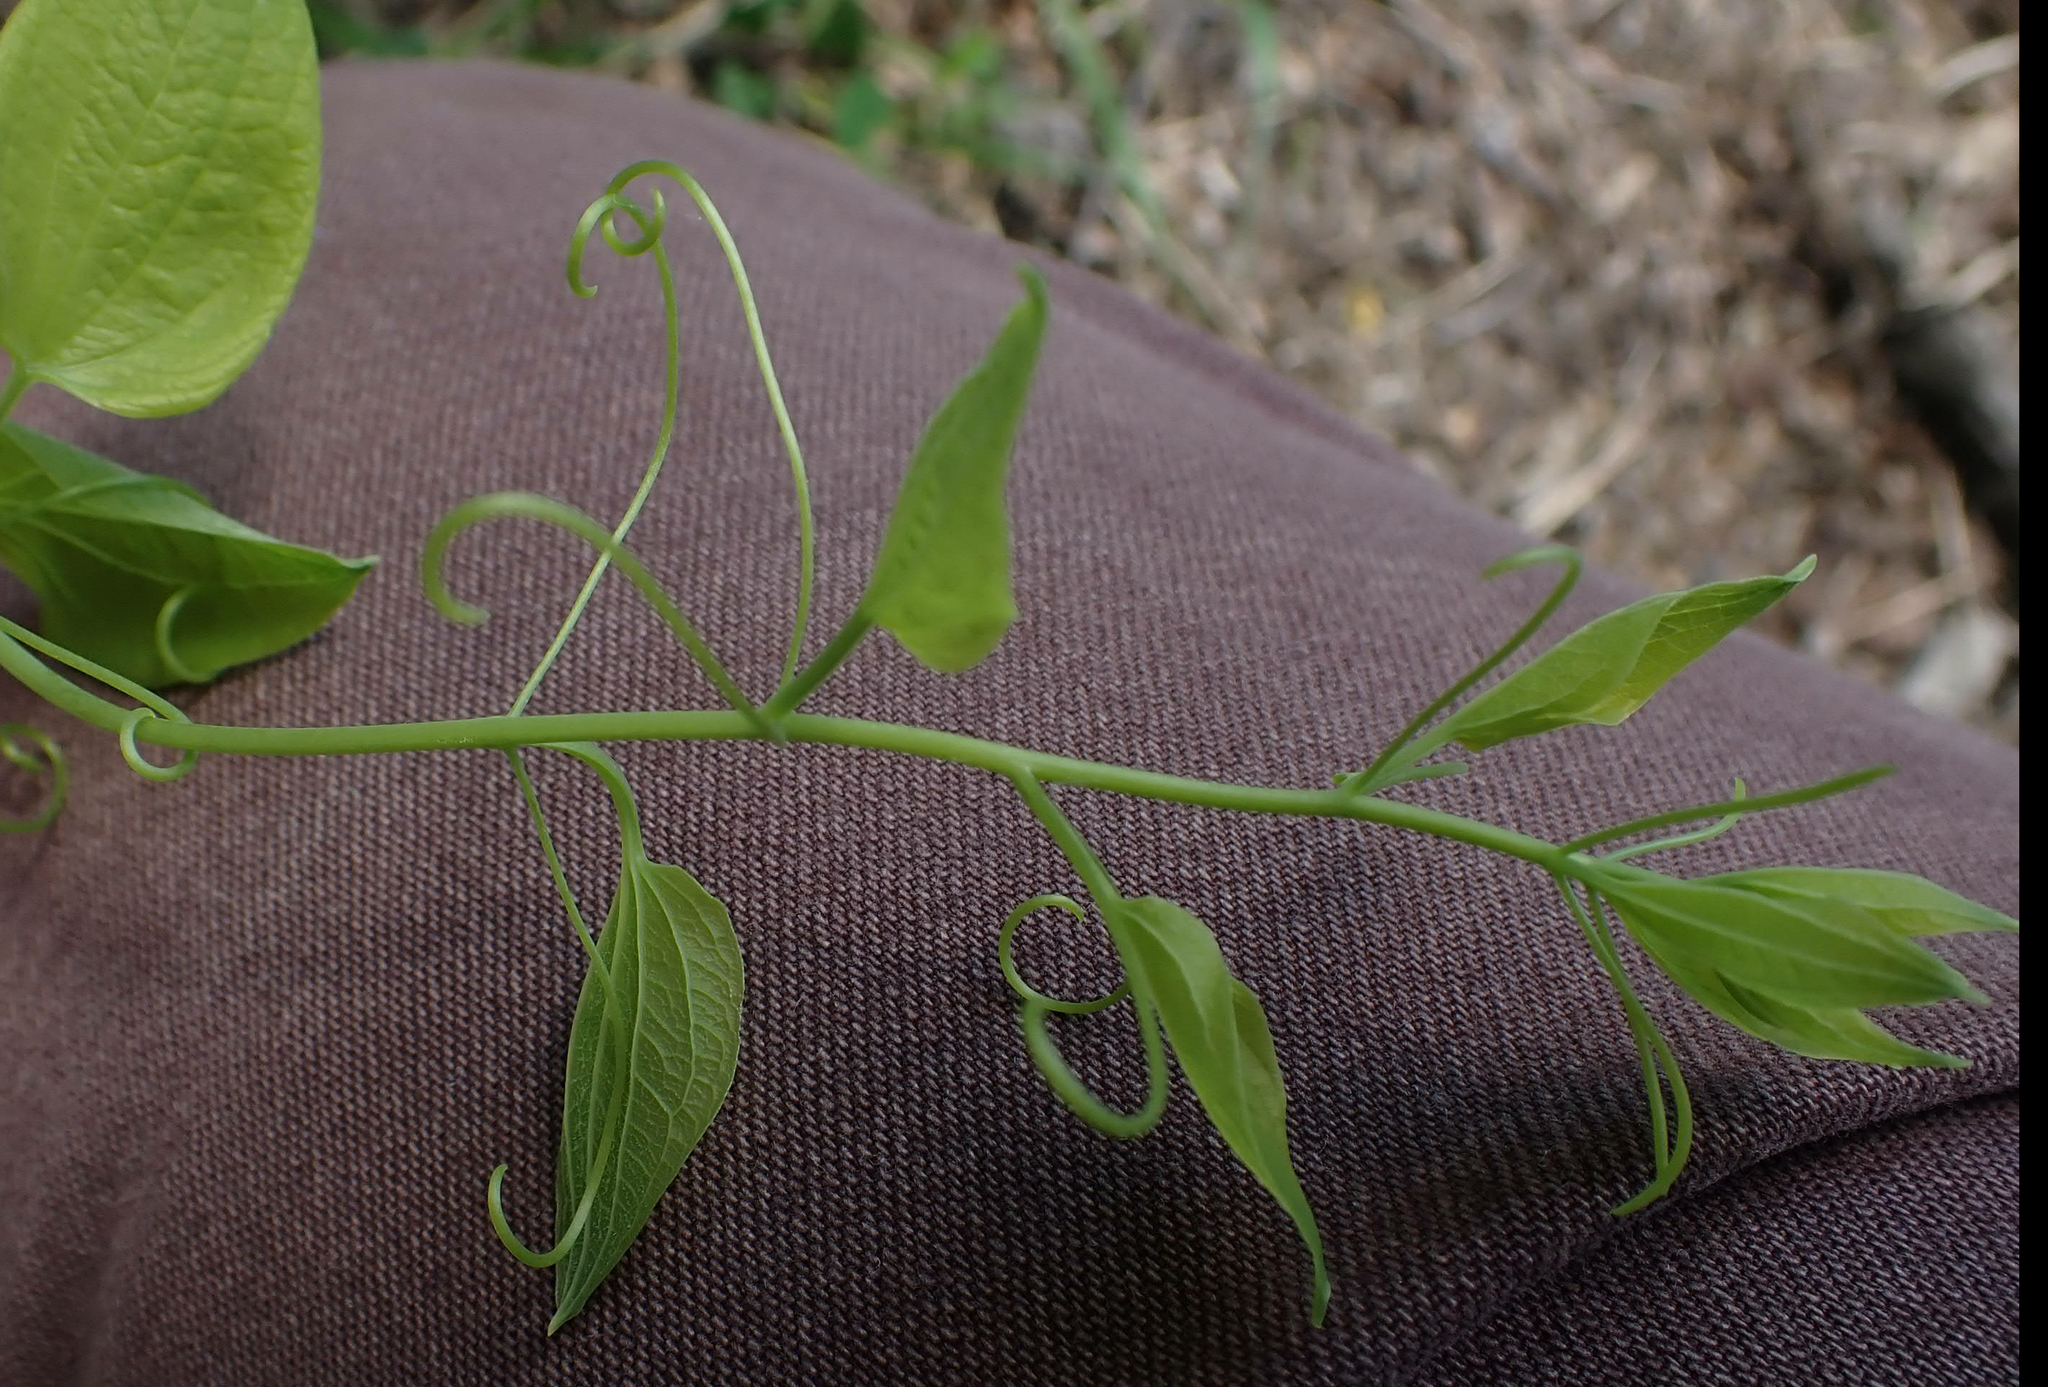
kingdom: Plantae
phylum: Tracheophyta
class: Liliopsida
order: Liliales
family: Smilacaceae
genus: Smilax
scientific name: Smilax lasioneura
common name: Blue ridge carrionflower
